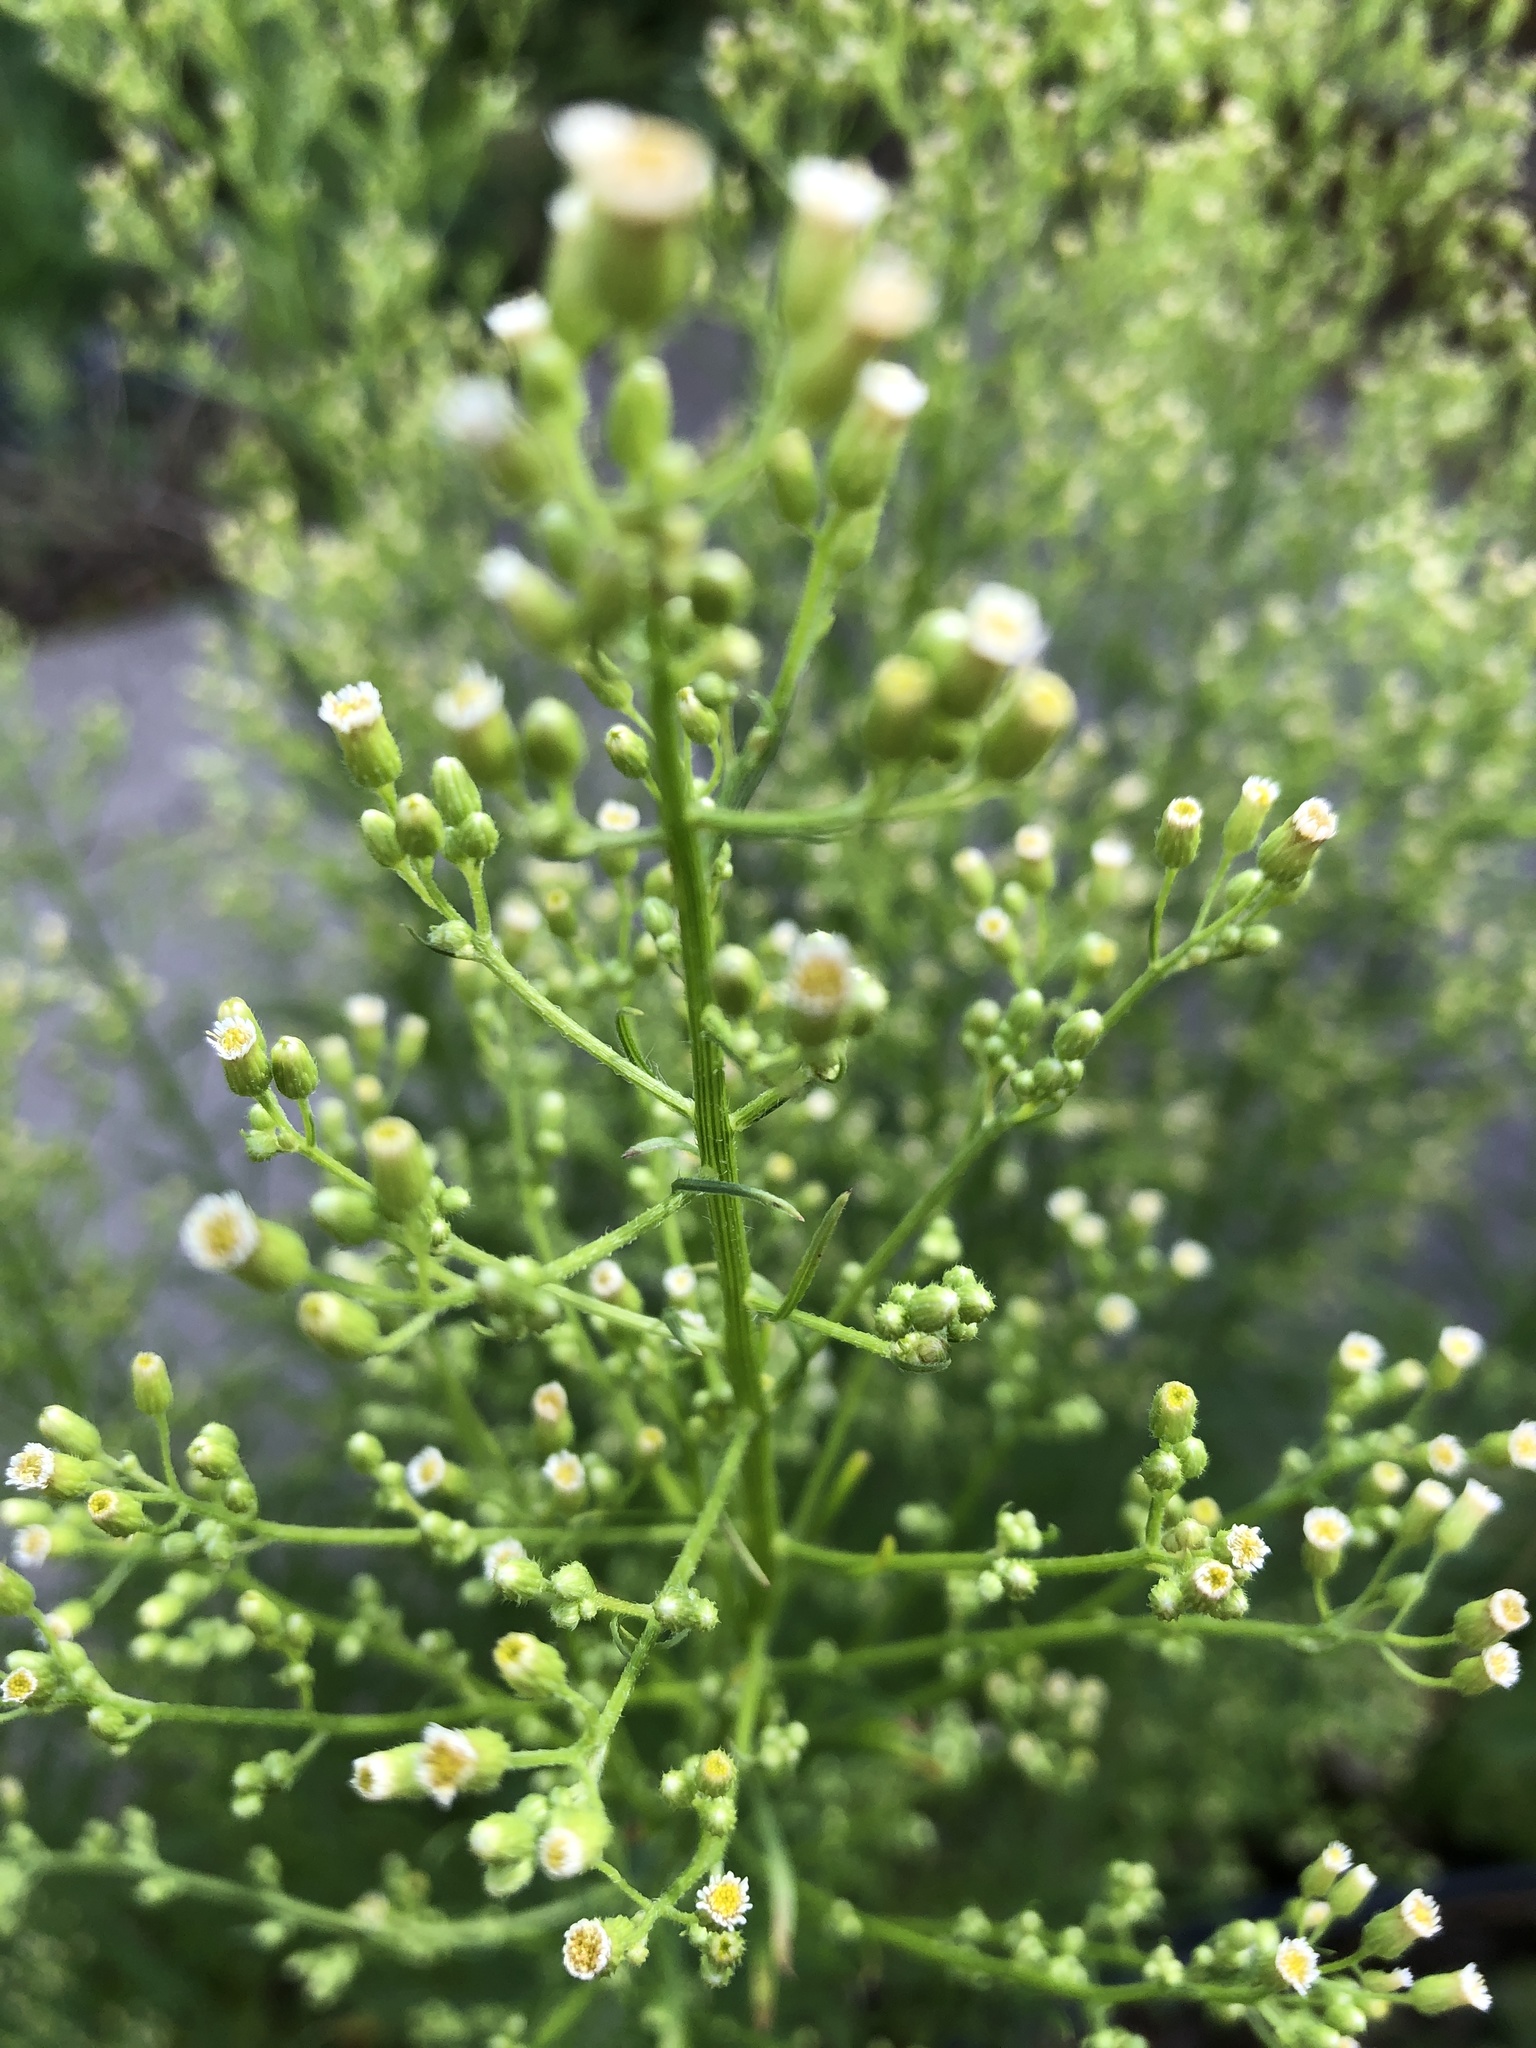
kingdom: Plantae
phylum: Tracheophyta
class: Magnoliopsida
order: Asterales
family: Asteraceae
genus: Erigeron
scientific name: Erigeron canadensis
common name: Canadian fleabane
